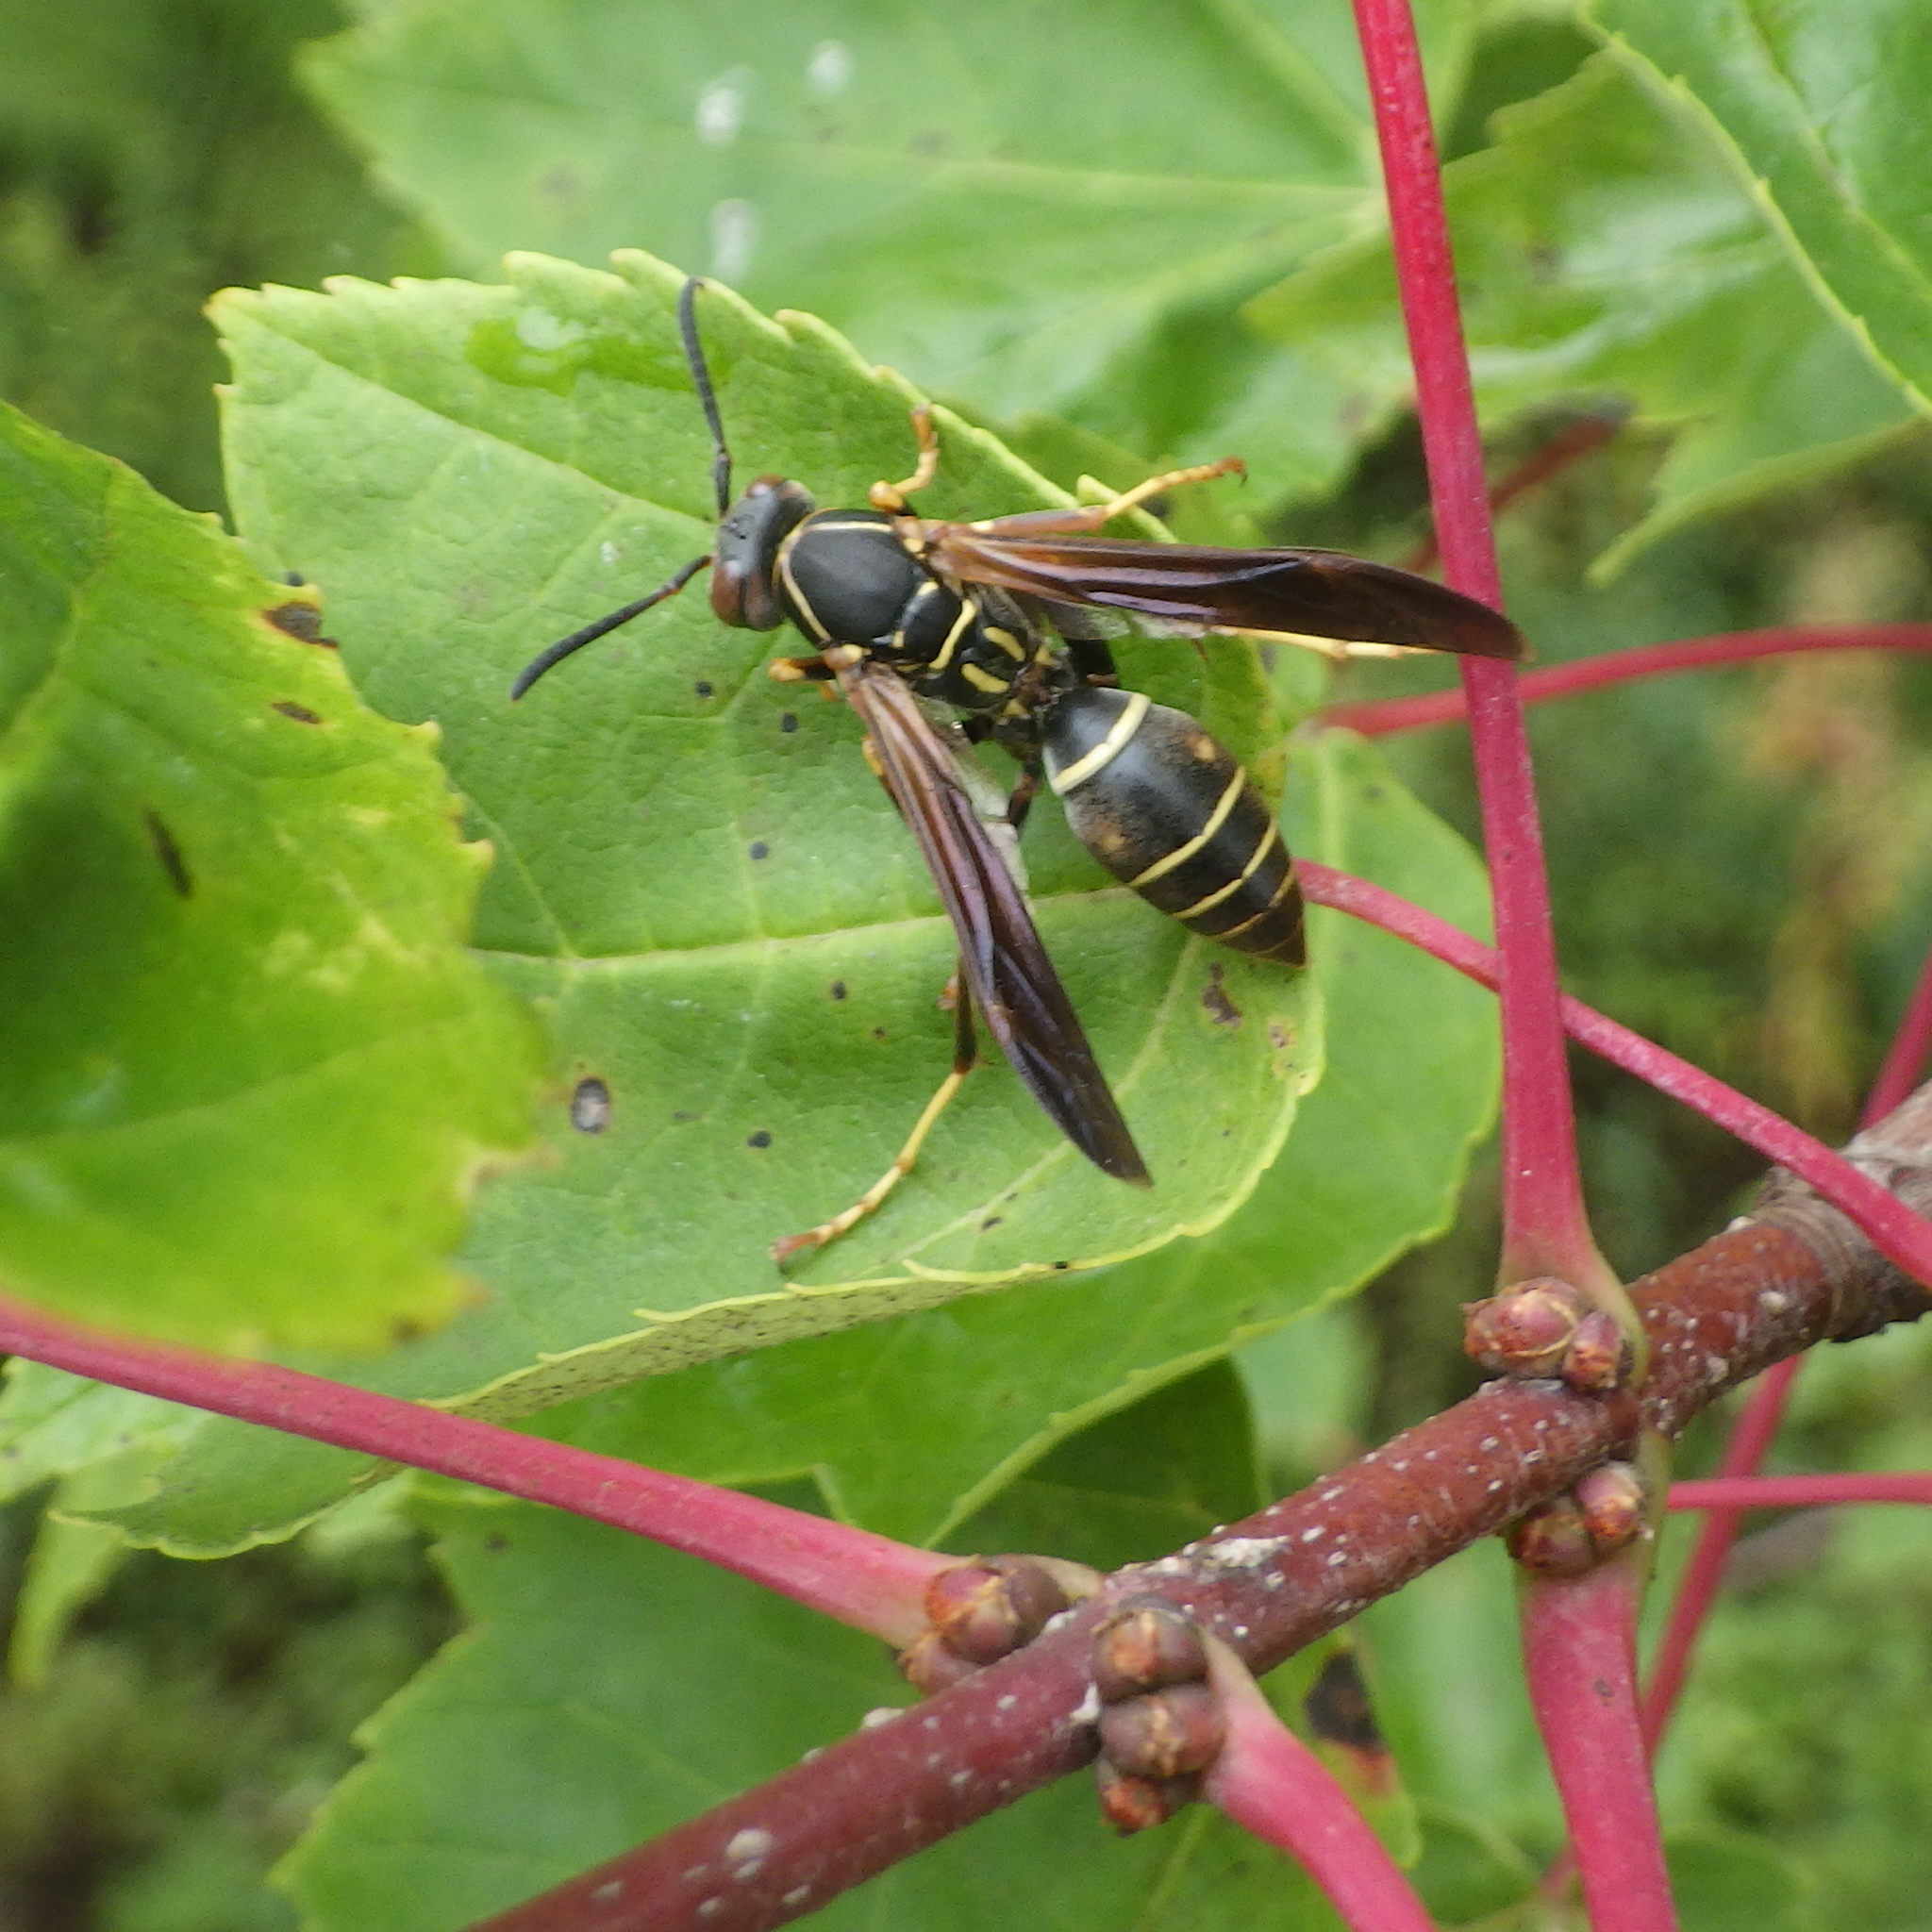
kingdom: Animalia
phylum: Arthropoda
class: Insecta
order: Hymenoptera
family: Eumenidae
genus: Polistes
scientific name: Polistes fuscatus
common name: Dark paper wasp
